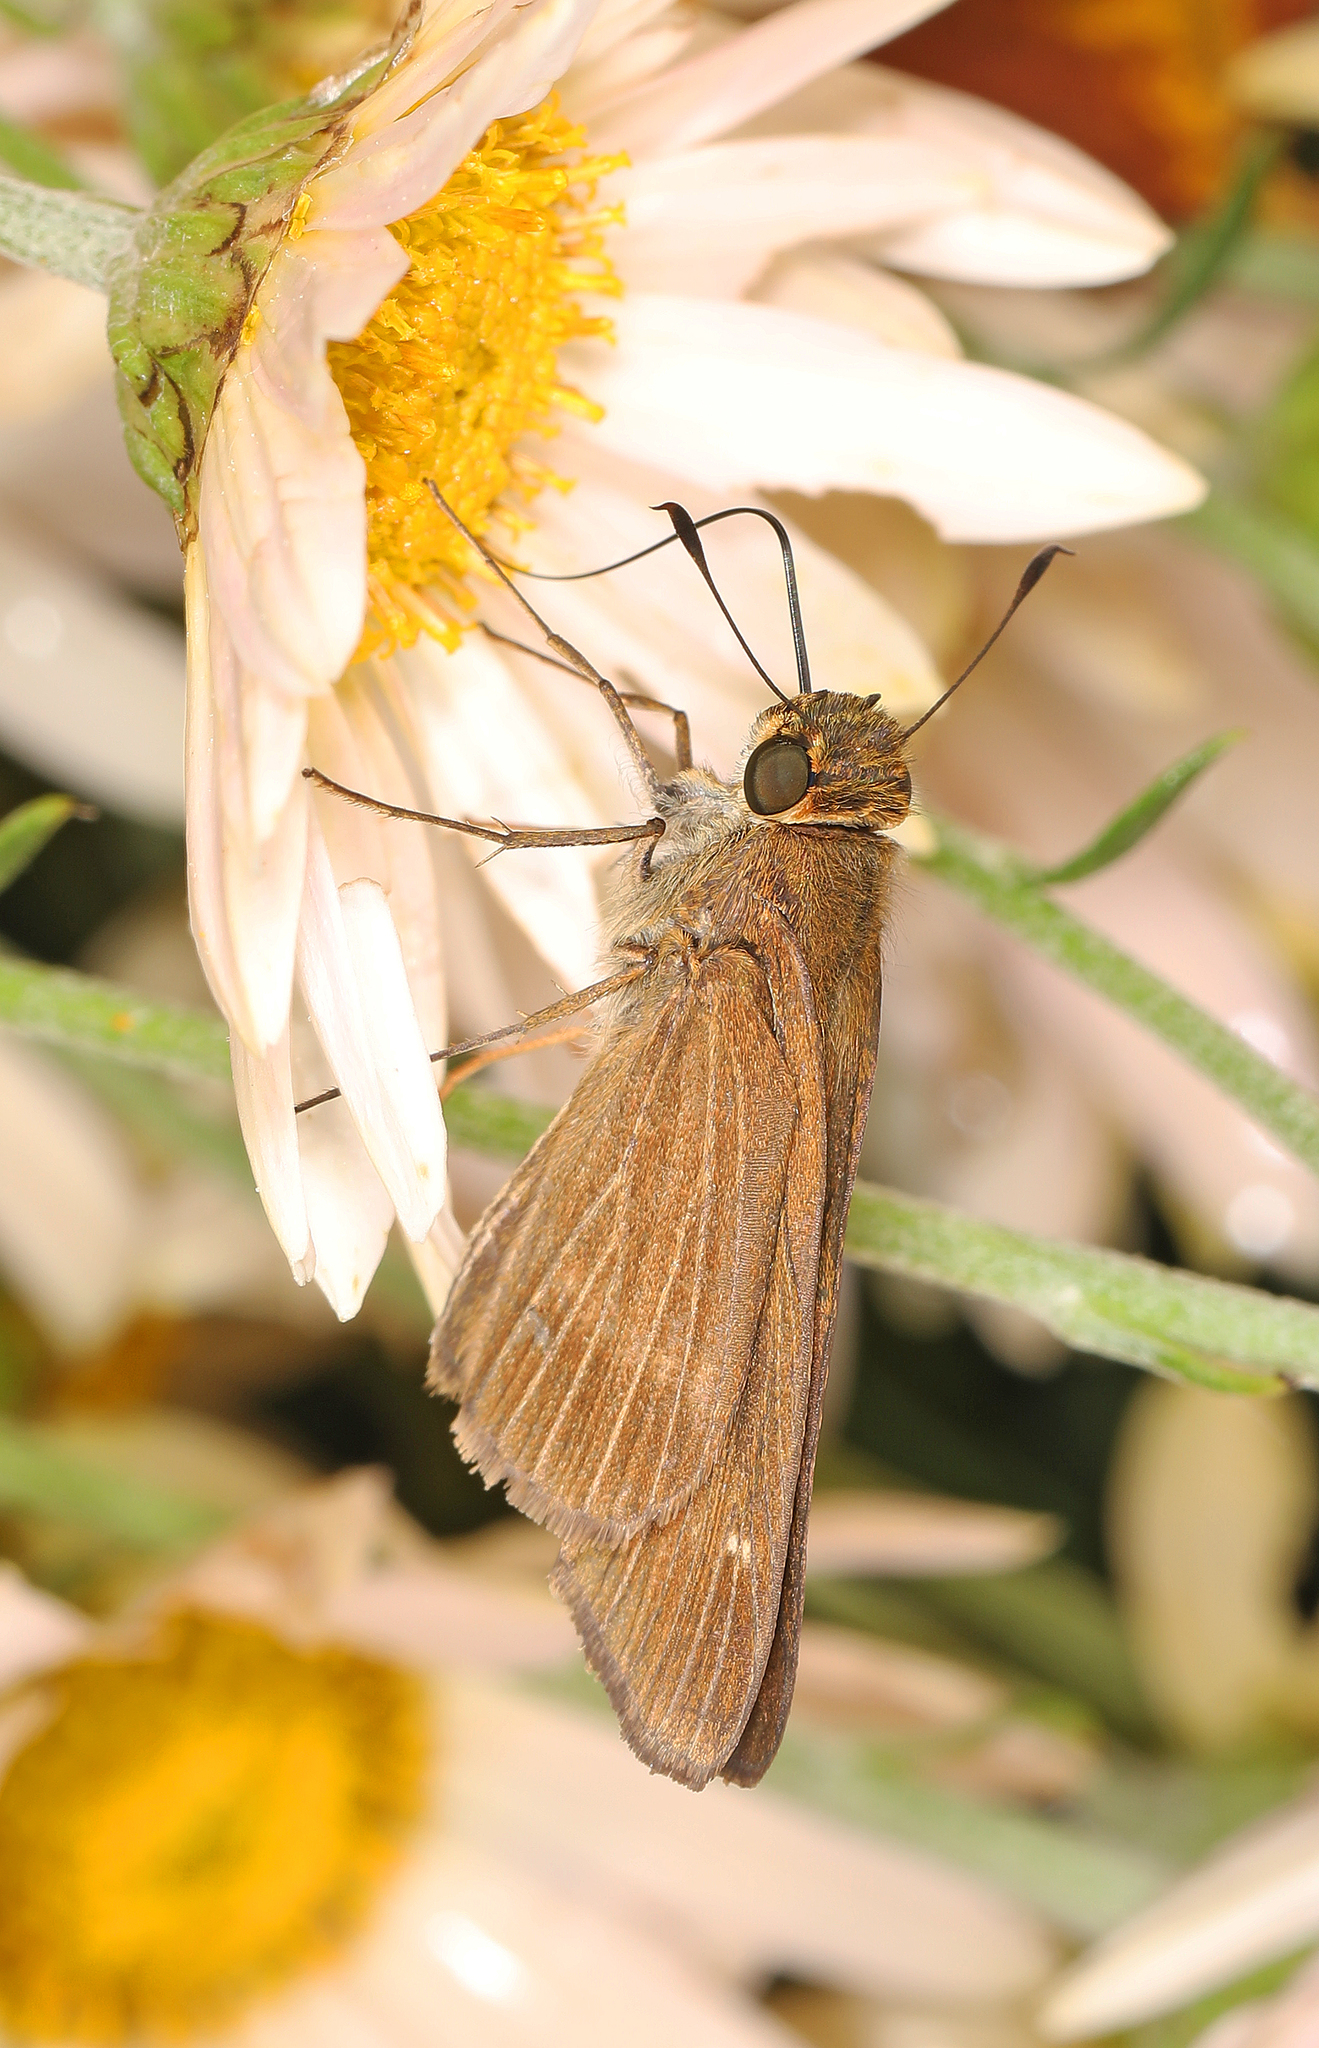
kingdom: Animalia
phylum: Arthropoda
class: Insecta
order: Lepidoptera
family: Hesperiidae
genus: Panoquina
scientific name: Panoquina ocola
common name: Ocola skipper
